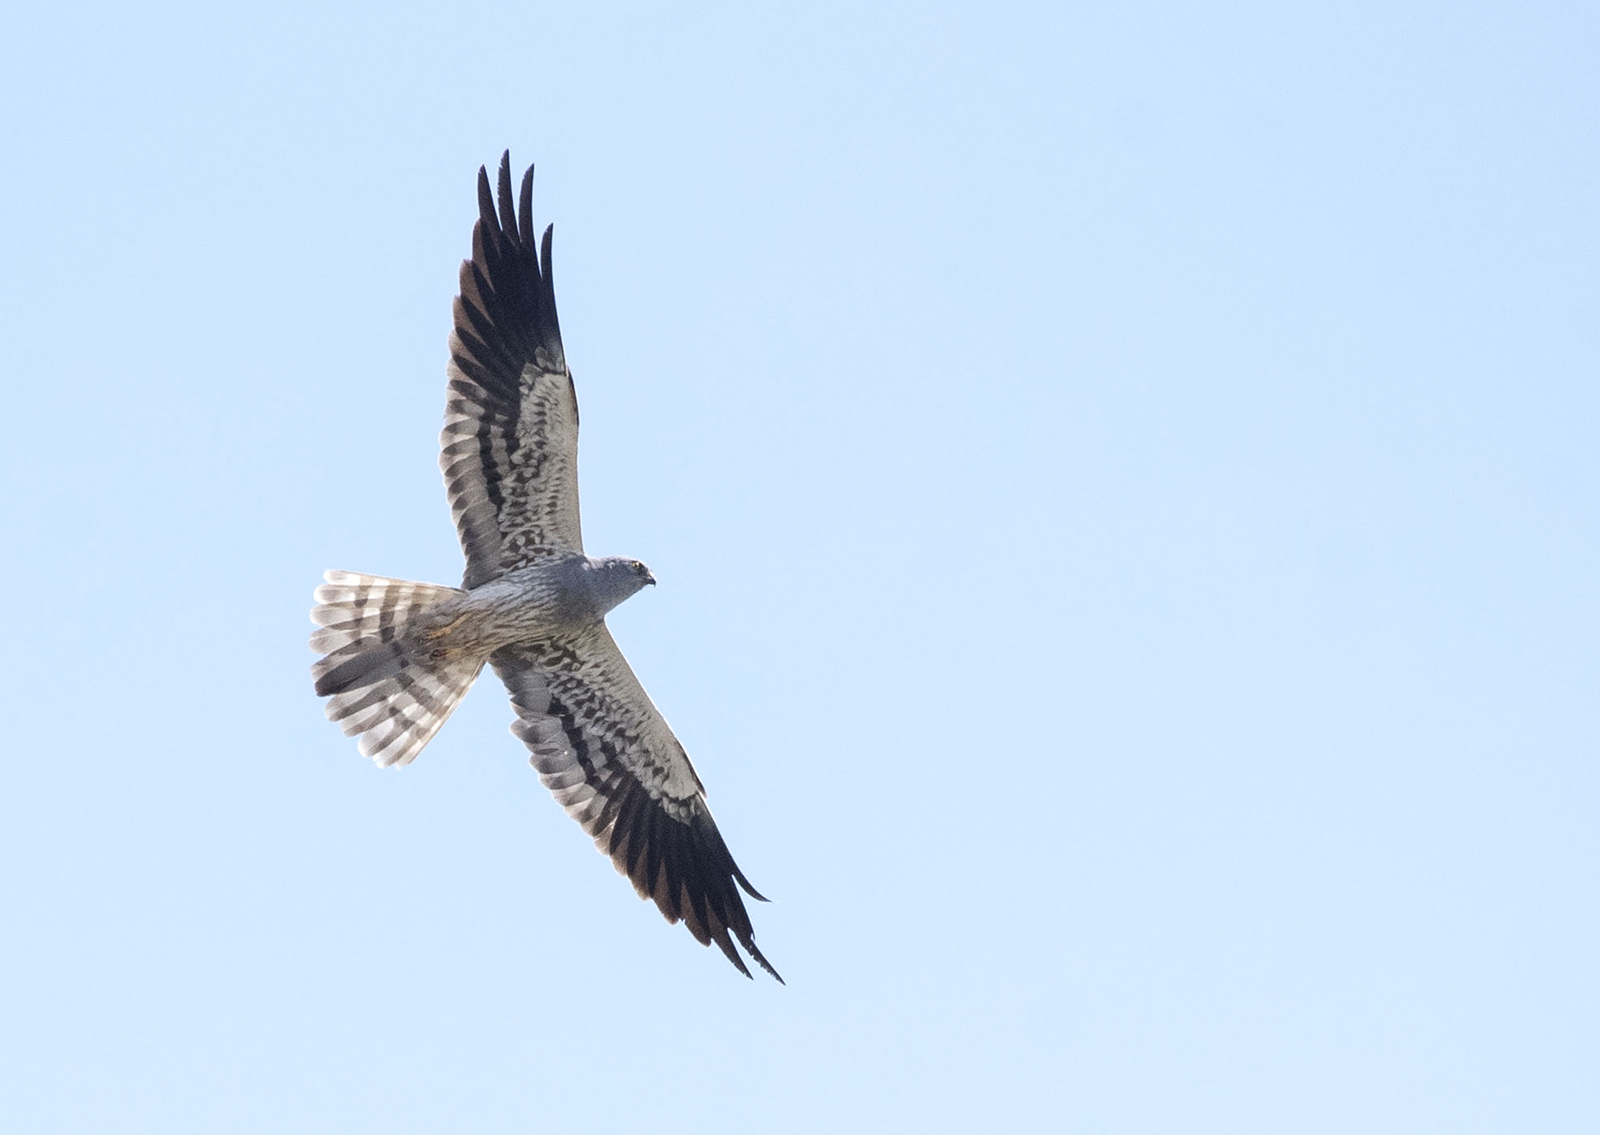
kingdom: Animalia
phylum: Chordata
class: Aves
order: Accipitriformes
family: Accipitridae
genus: Circus
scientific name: Circus pygargus
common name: Montagu's harrier
